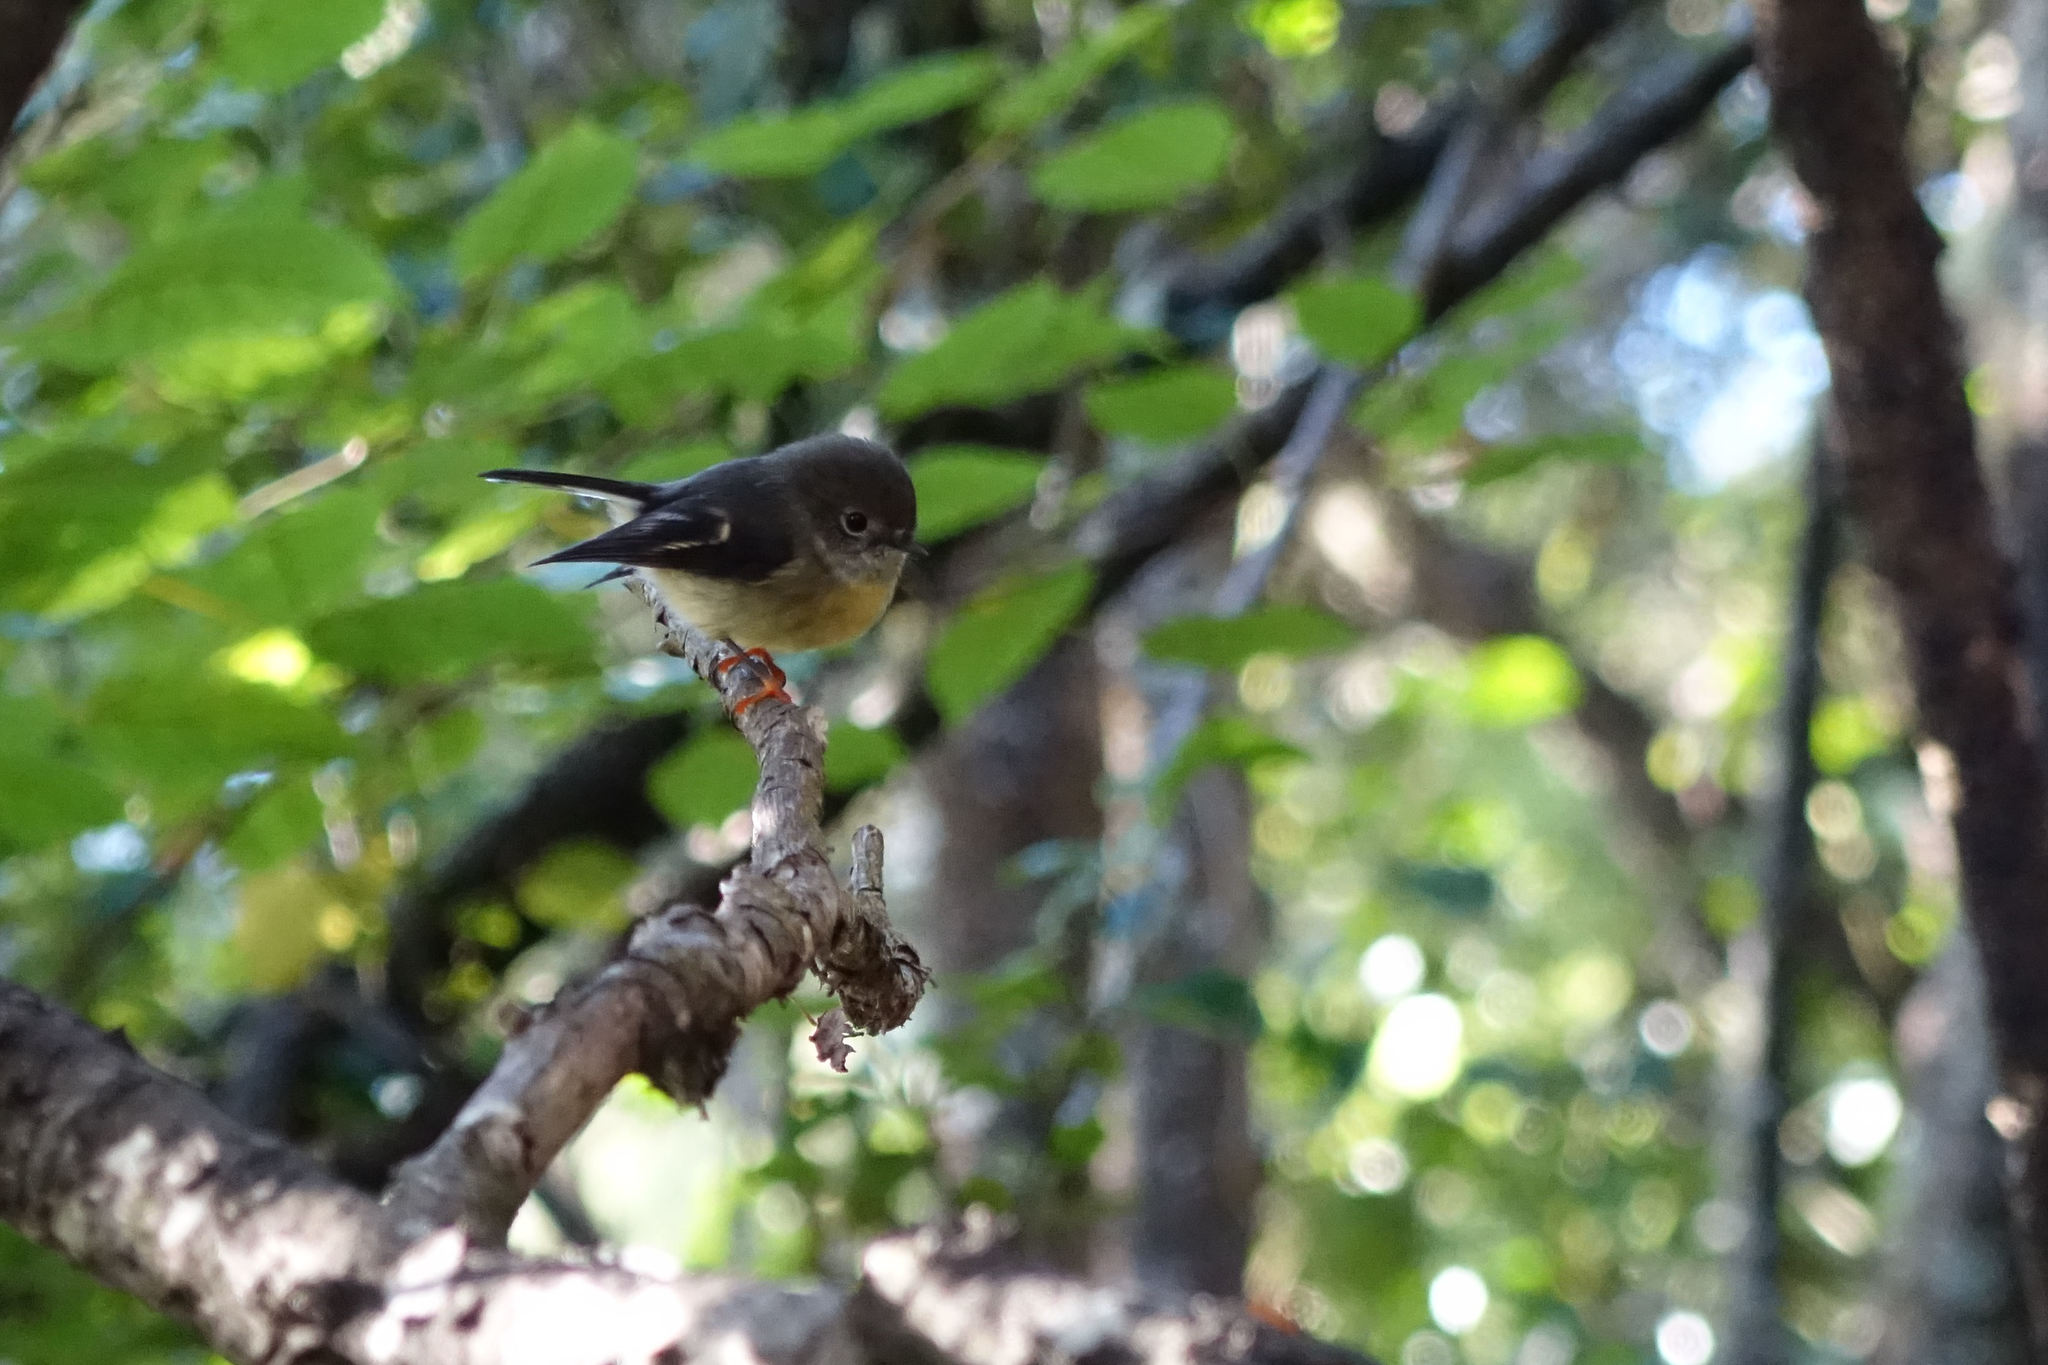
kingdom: Animalia
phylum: Chordata
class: Aves
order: Passeriformes
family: Petroicidae
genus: Petroica
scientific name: Petroica macrocephala
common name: Tomtit
